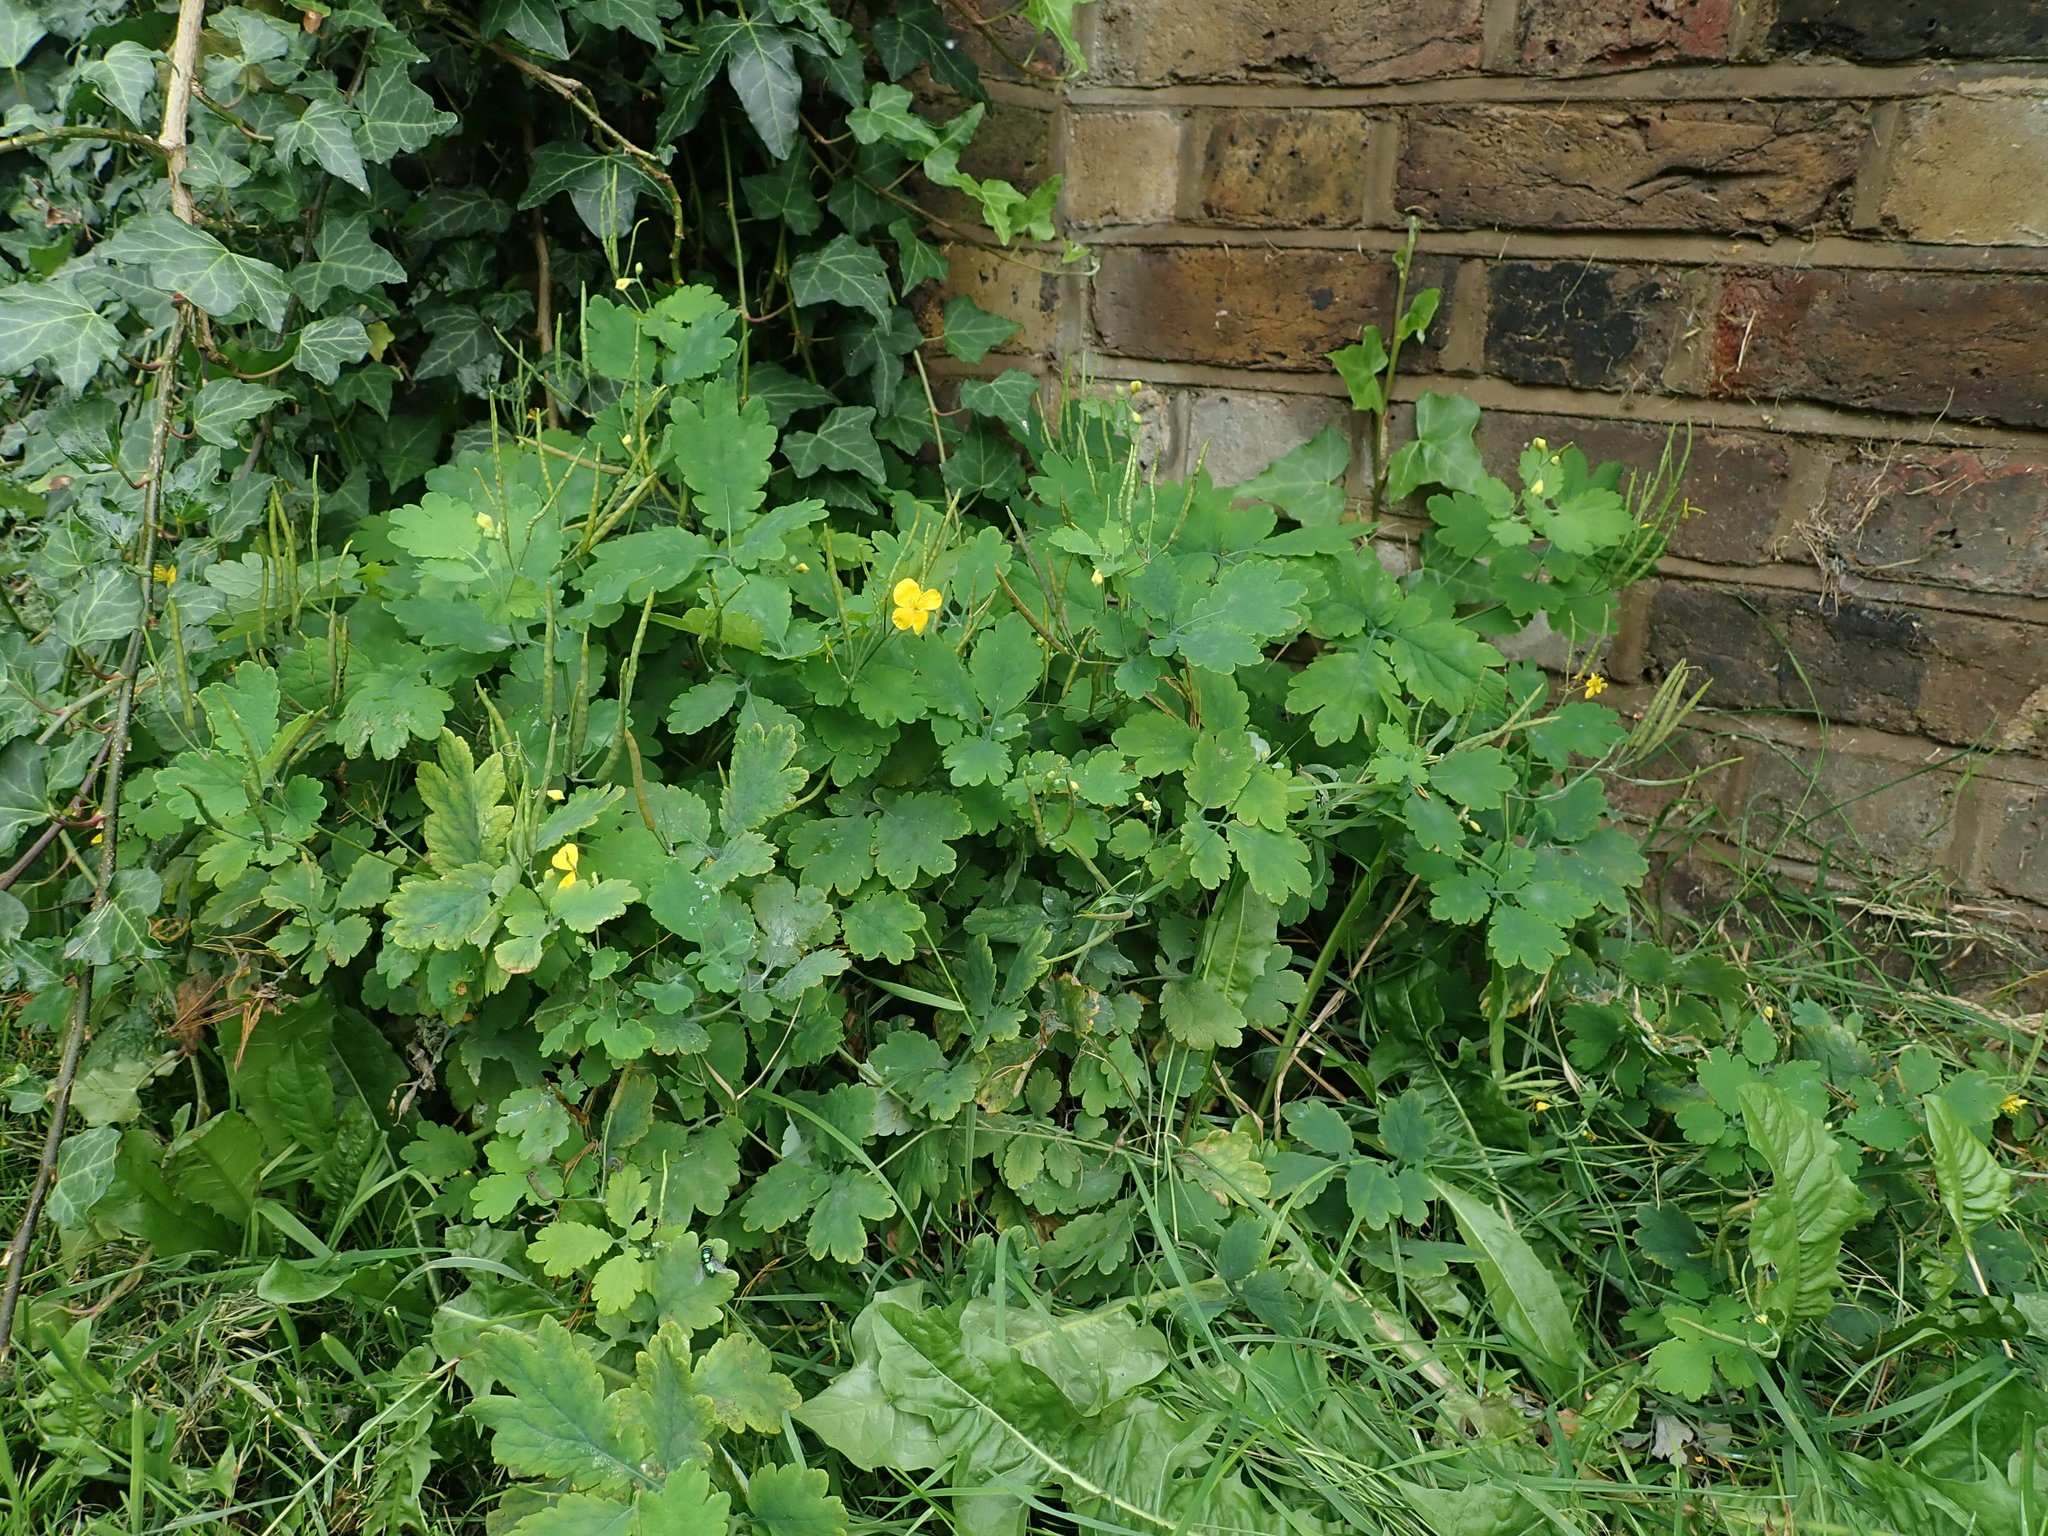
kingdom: Plantae
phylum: Tracheophyta
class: Magnoliopsida
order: Ranunculales
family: Papaveraceae
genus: Chelidonium
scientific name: Chelidonium majus
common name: Greater celandine
